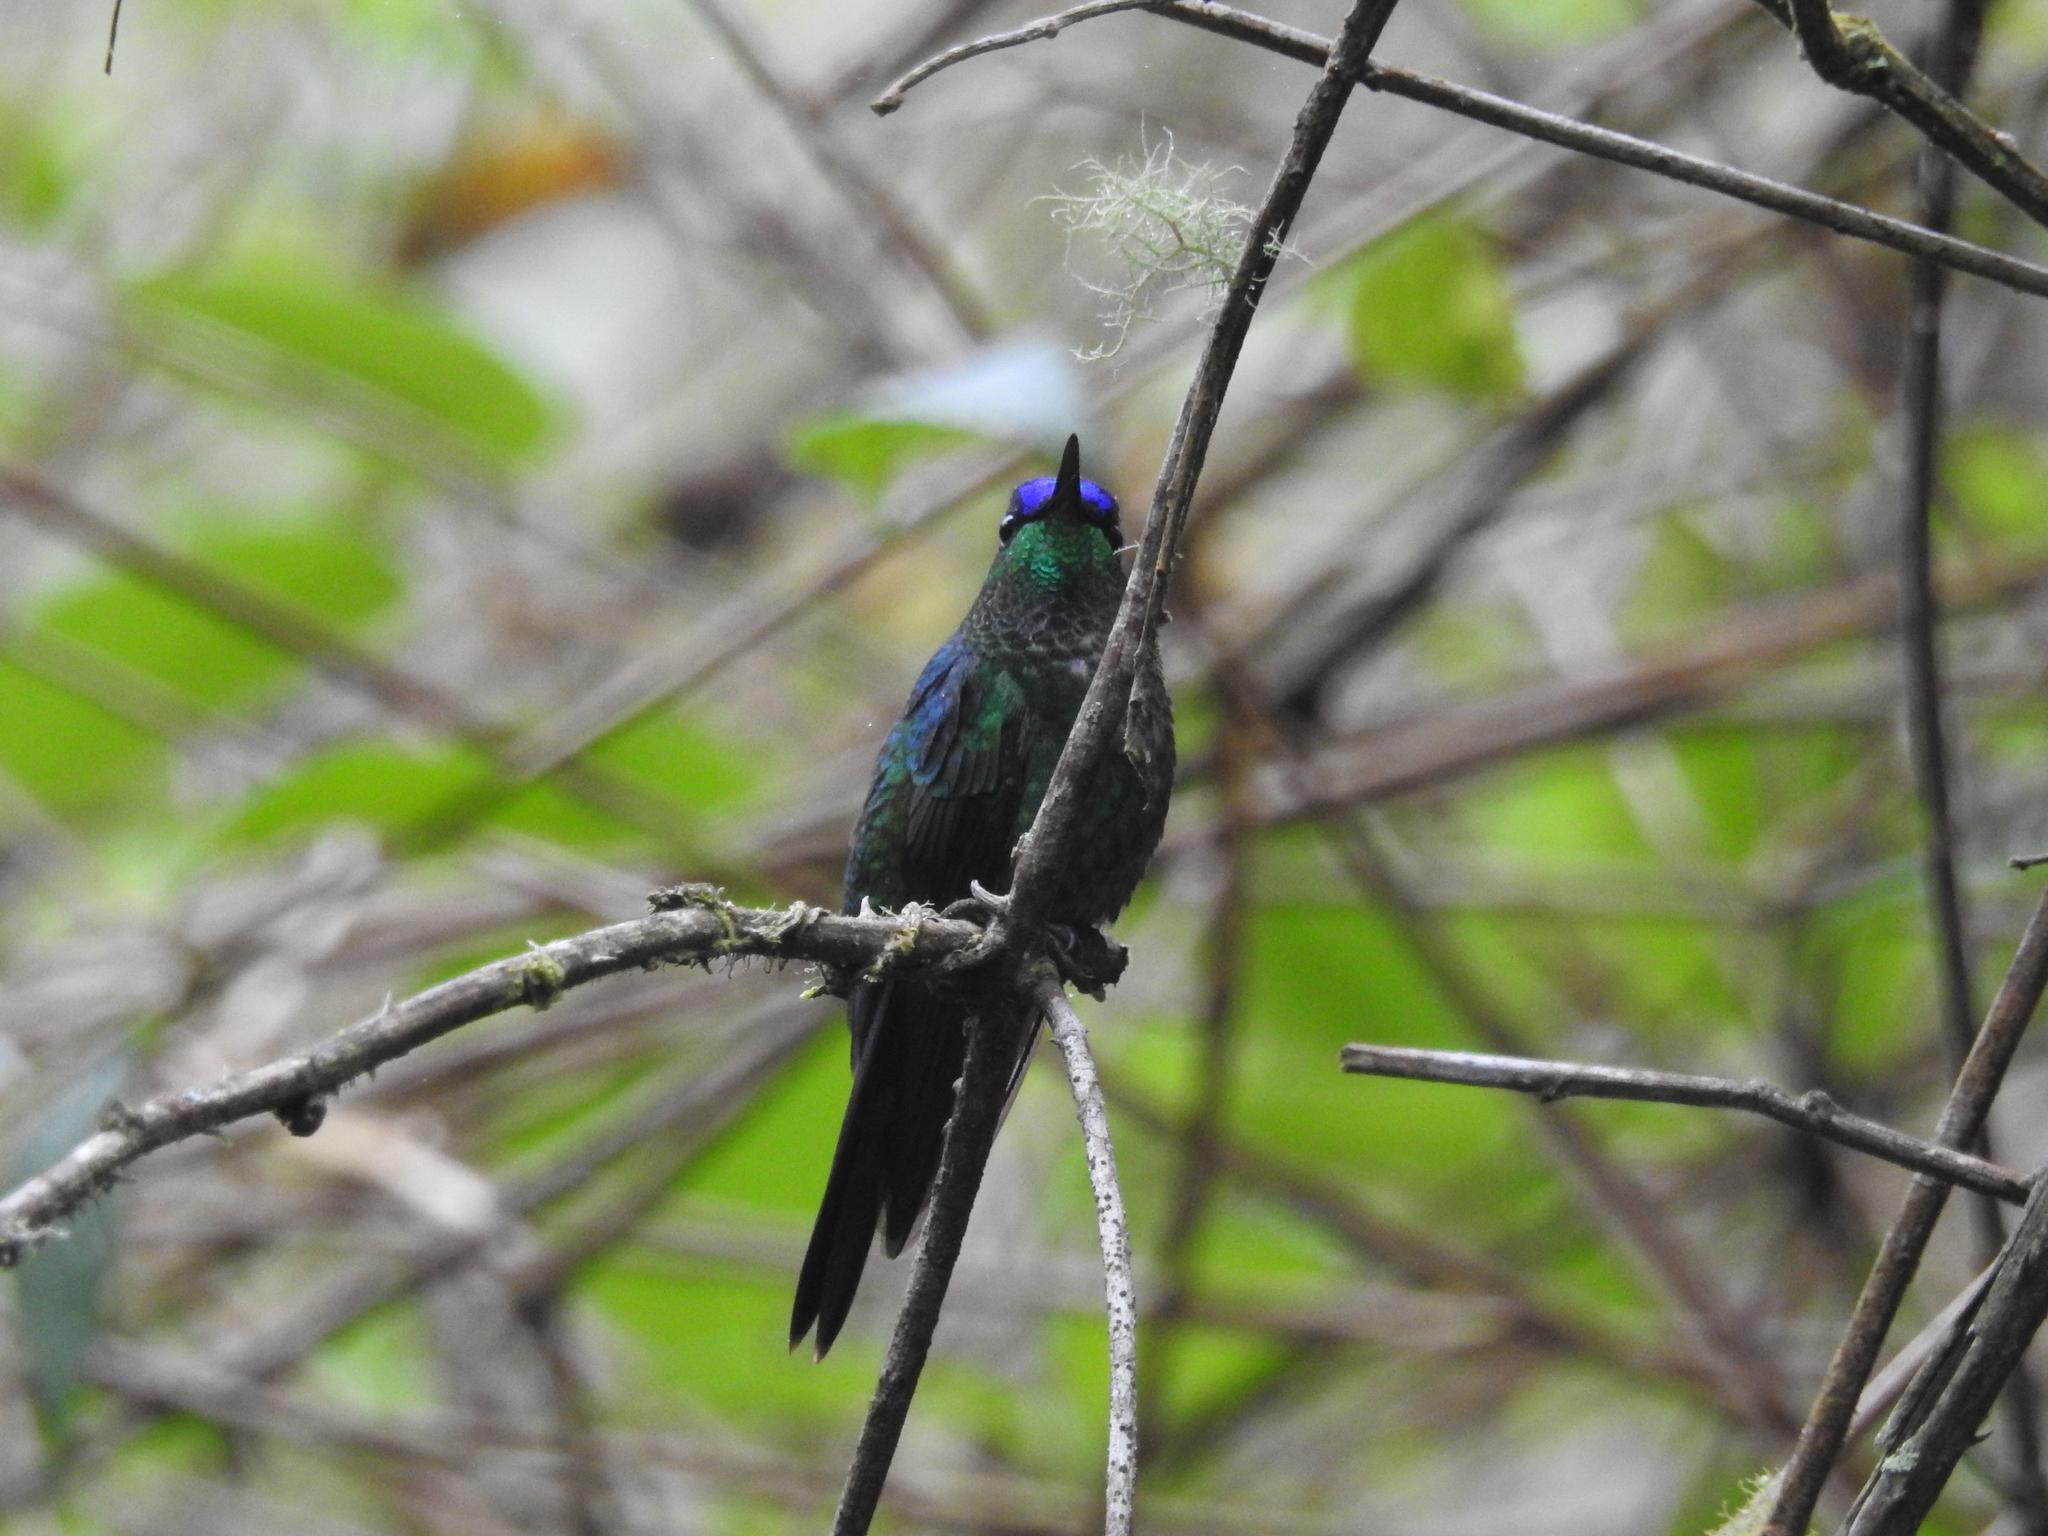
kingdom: Animalia
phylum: Chordata
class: Aves
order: Apodiformes
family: Trochilidae
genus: Thalurania
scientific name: Thalurania glaucopis
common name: Violet-capped woodnymph
